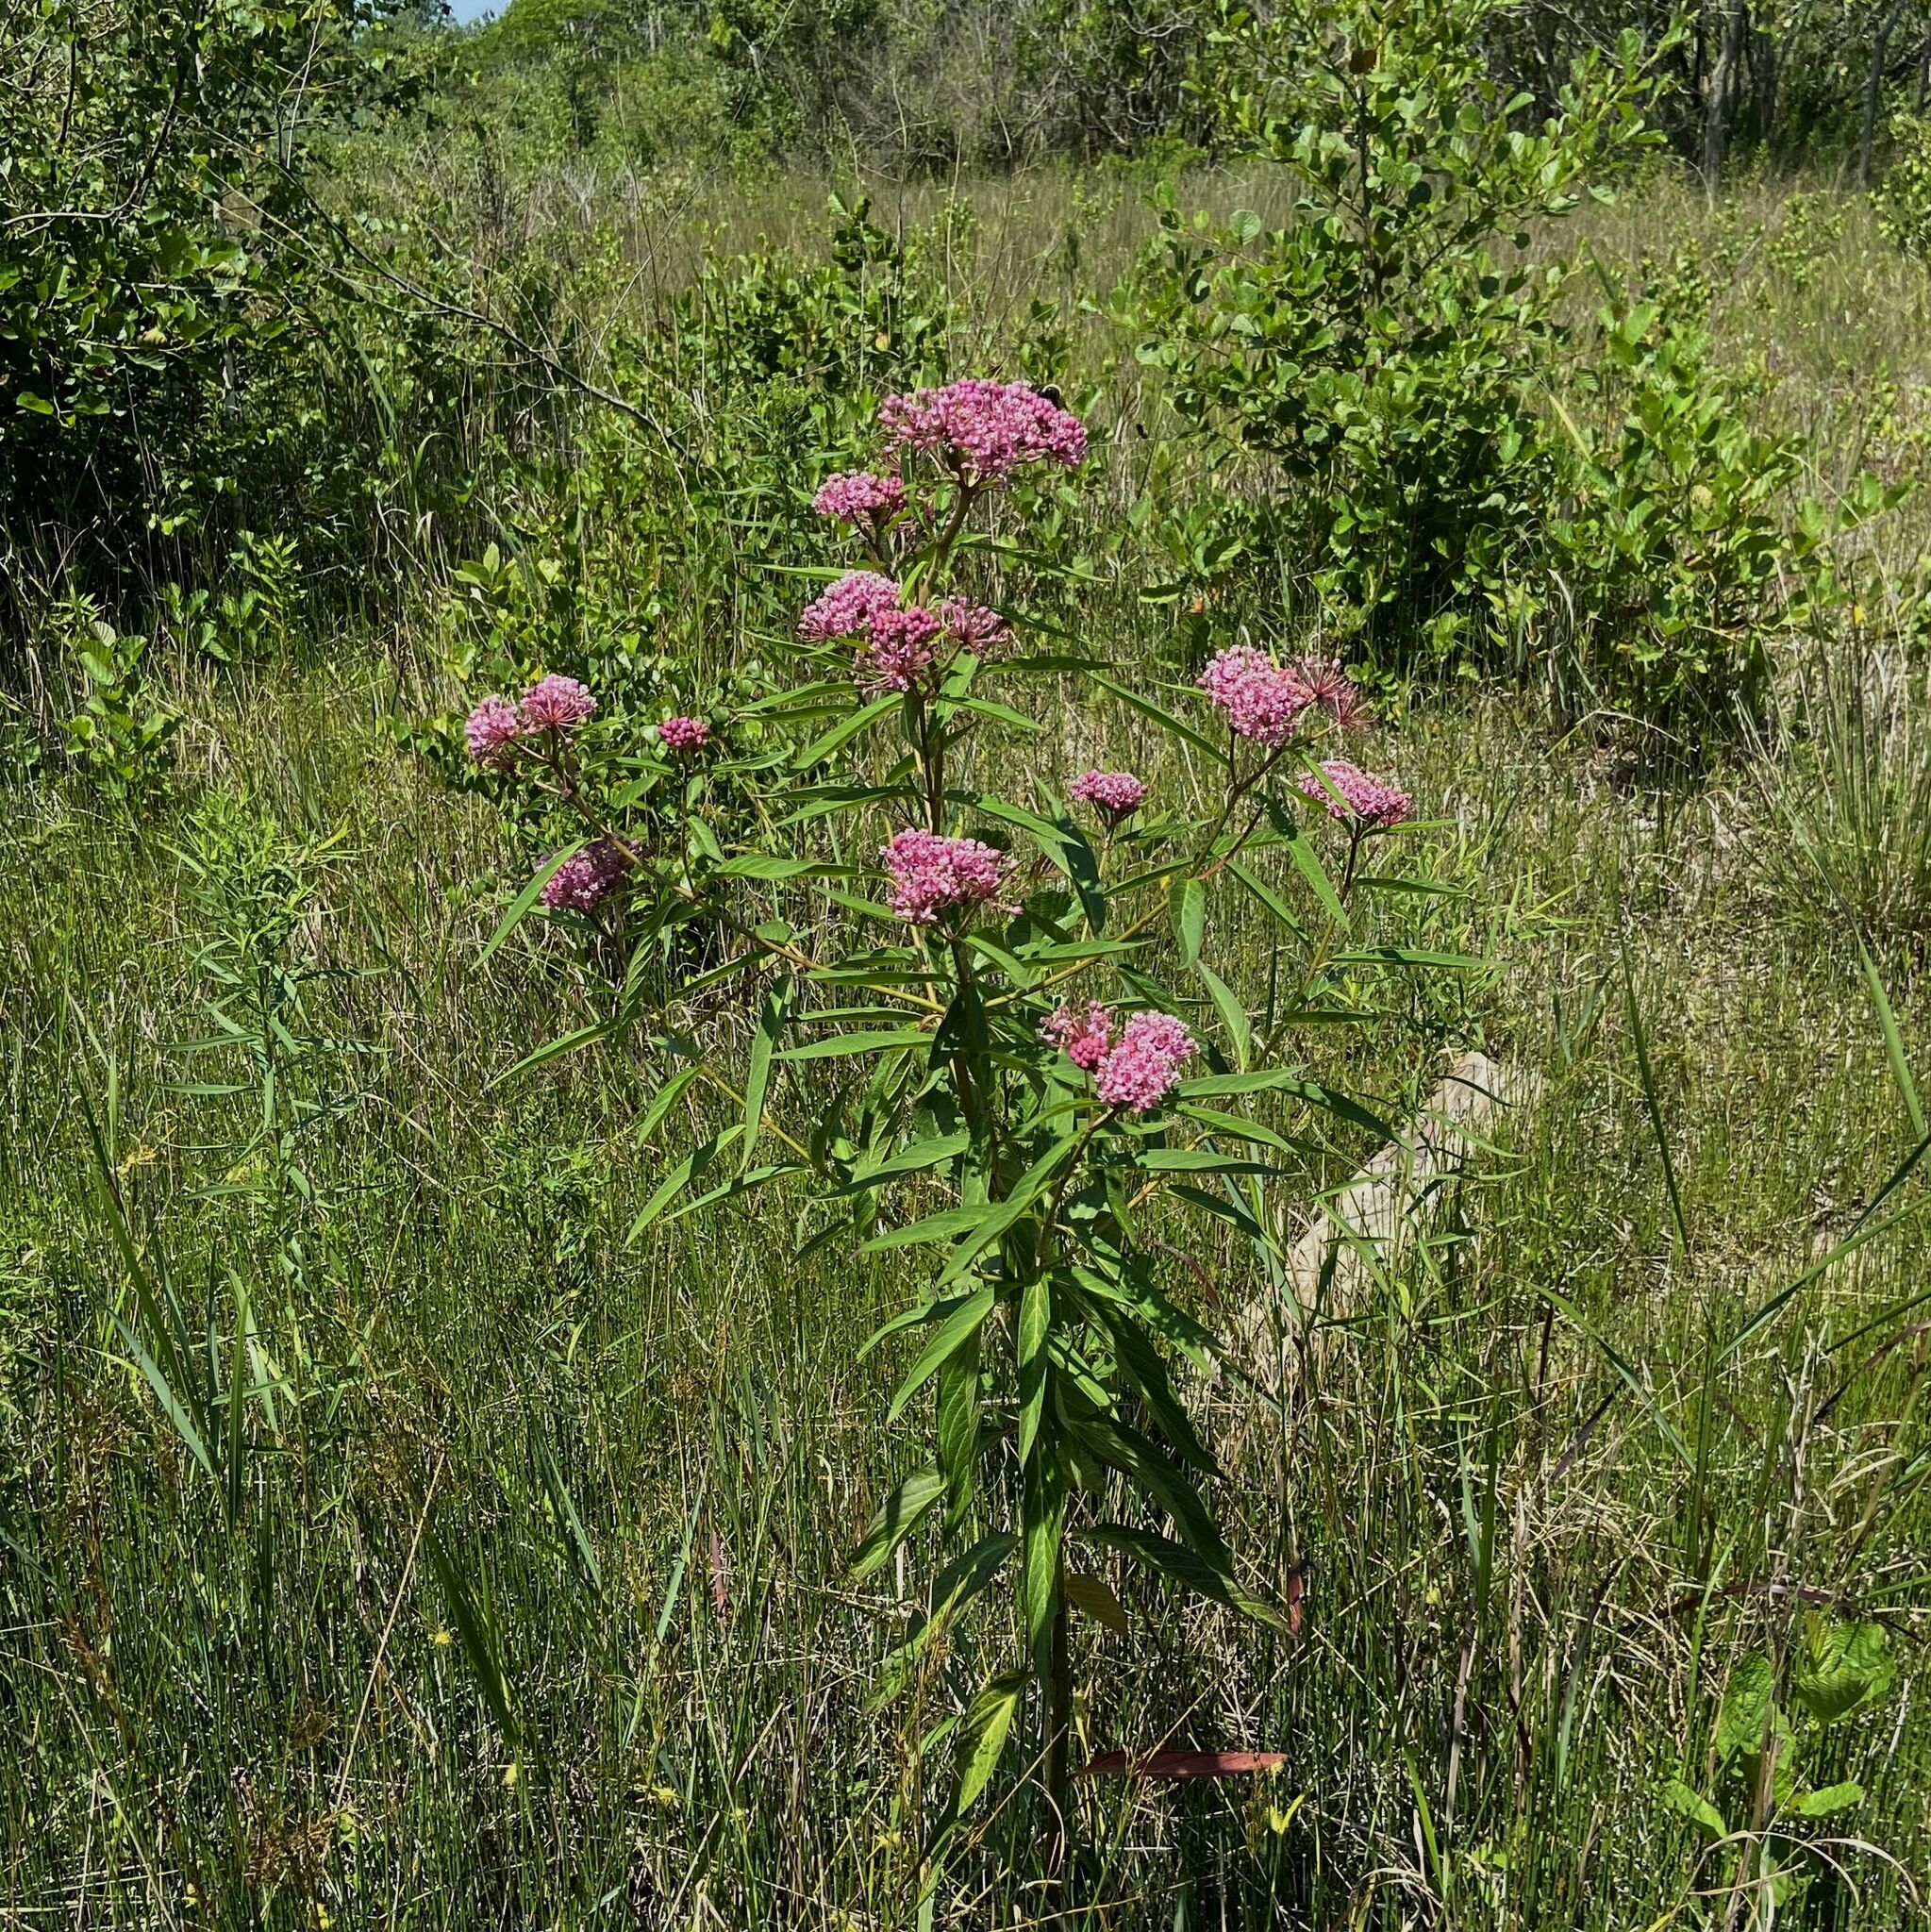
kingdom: Plantae
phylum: Tracheophyta
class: Magnoliopsida
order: Gentianales
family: Apocynaceae
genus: Asclepias
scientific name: Asclepias incarnata
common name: Swamp milkweed
